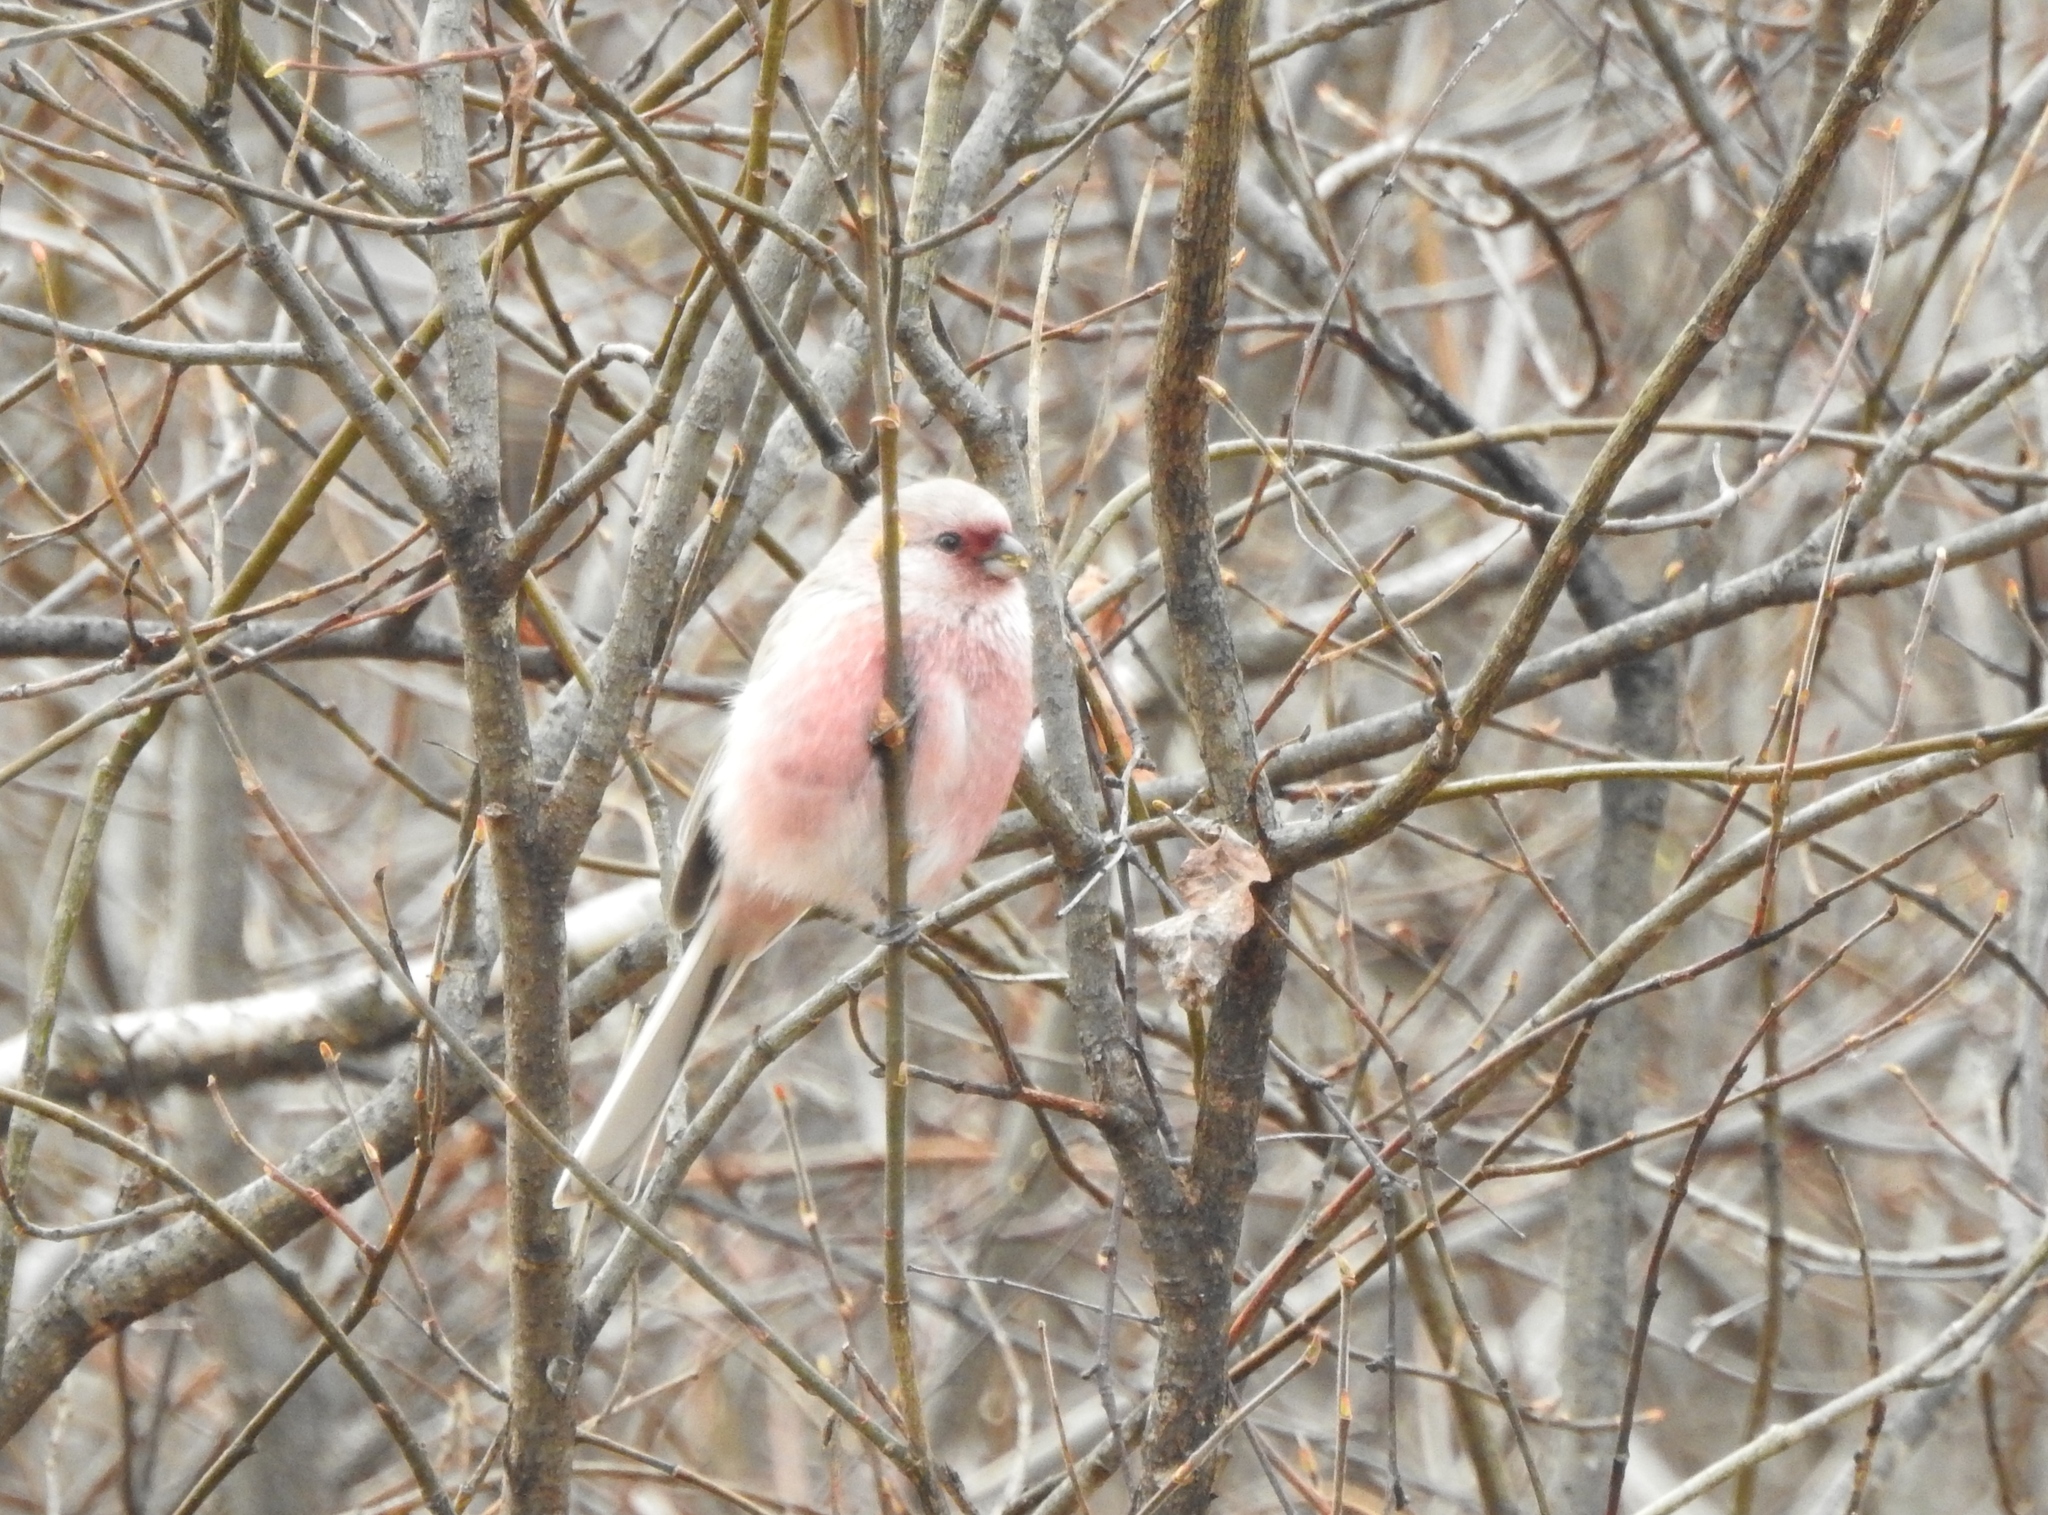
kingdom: Animalia
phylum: Chordata
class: Aves
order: Passeriformes
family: Fringillidae
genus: Carpodacus
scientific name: Carpodacus sibiricus
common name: Long-tailed rosefinch
